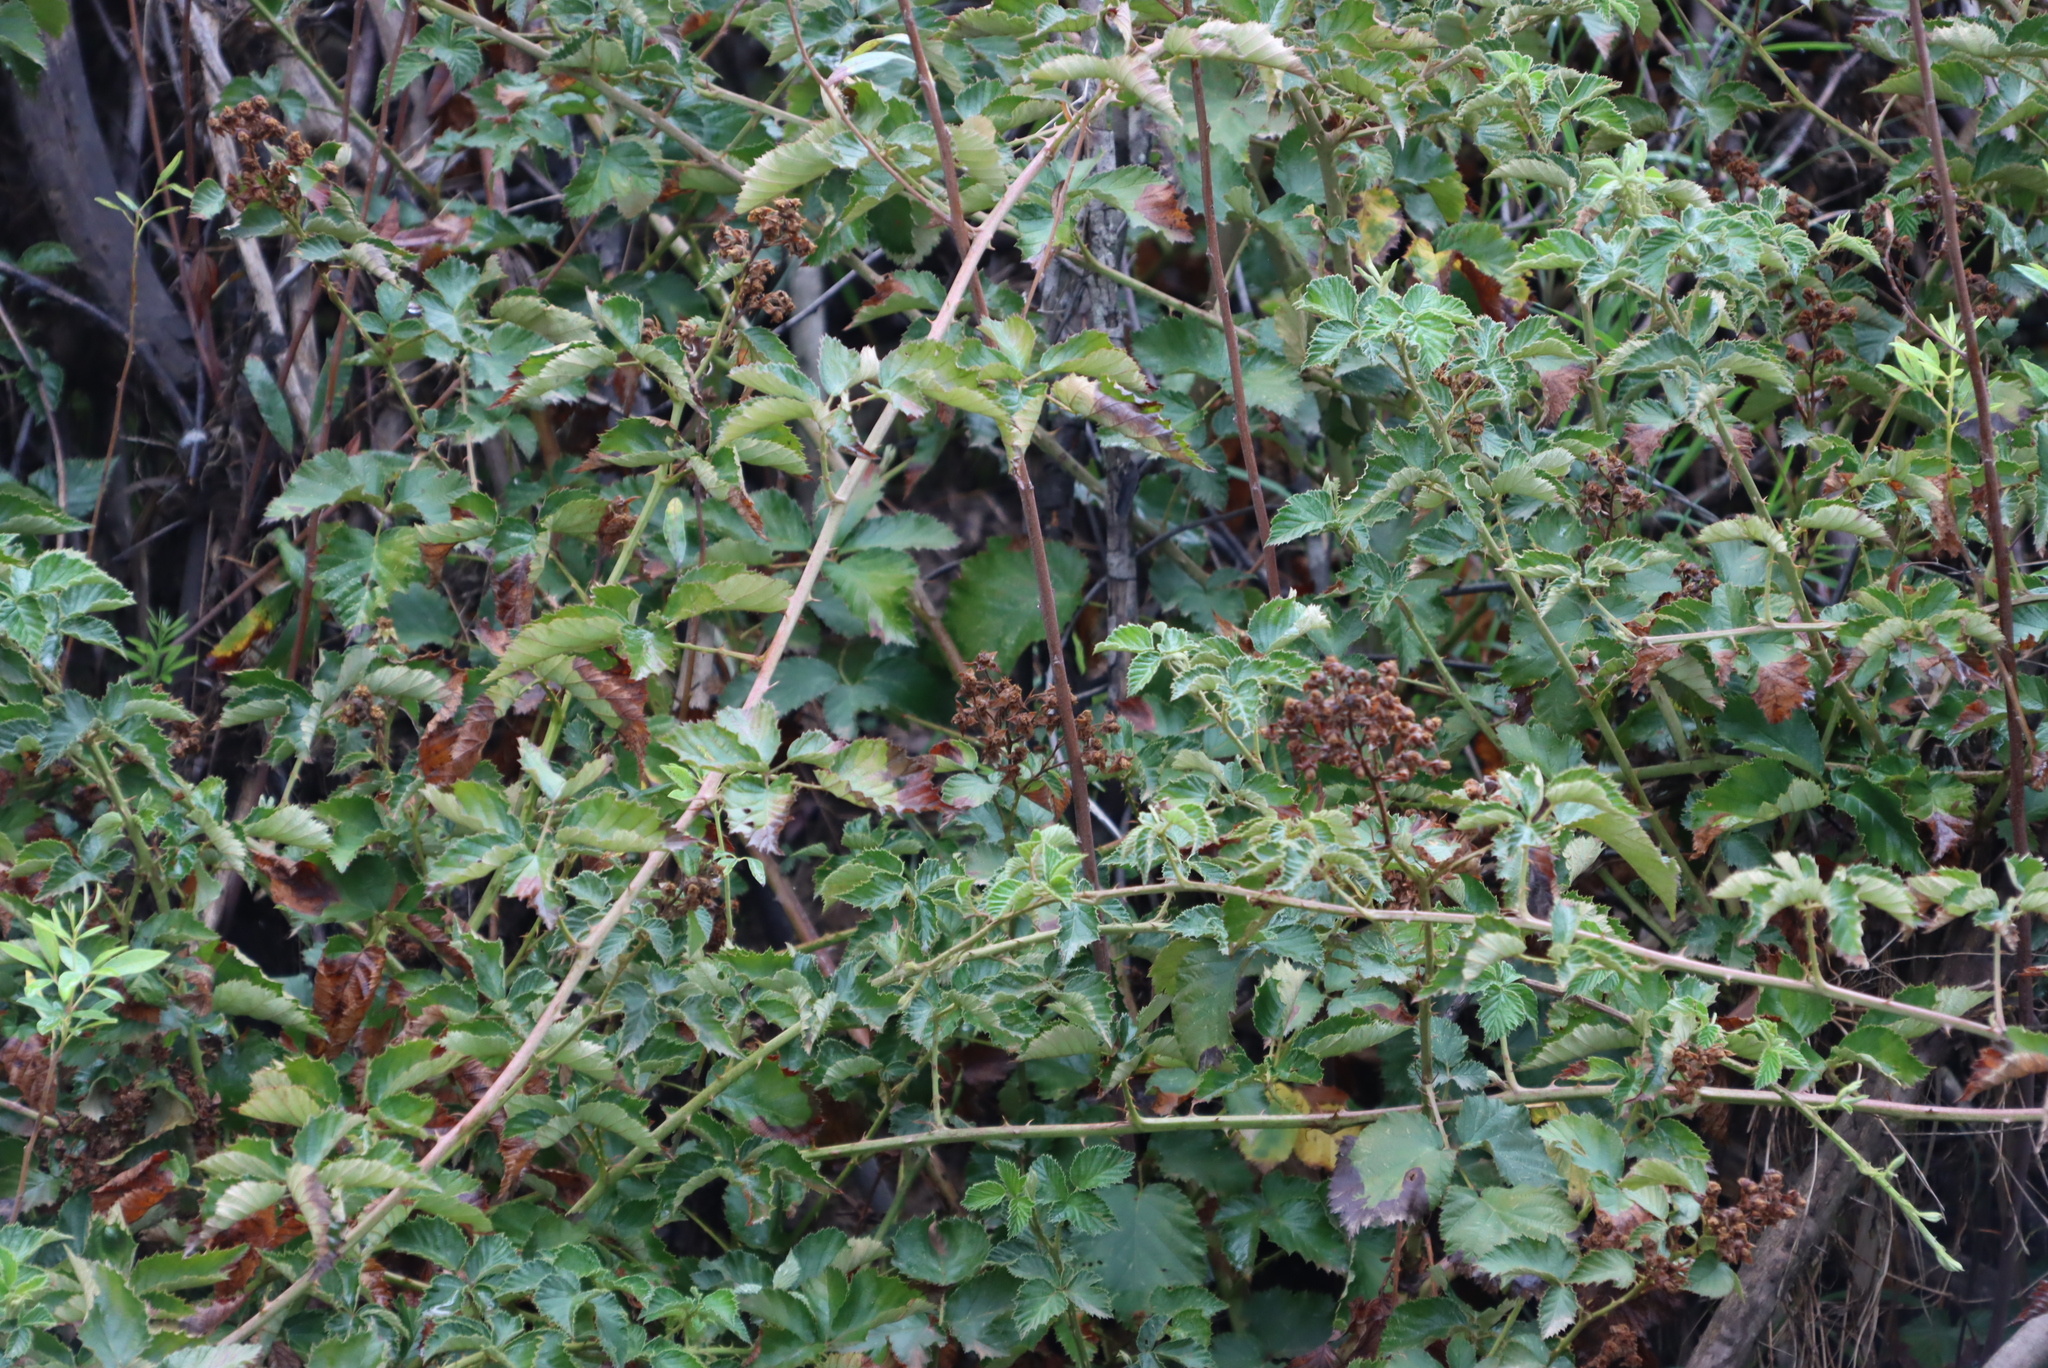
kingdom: Plantae
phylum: Tracheophyta
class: Magnoliopsida
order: Rosales
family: Rosaceae
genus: Rubus
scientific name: Rubus fultiformis
